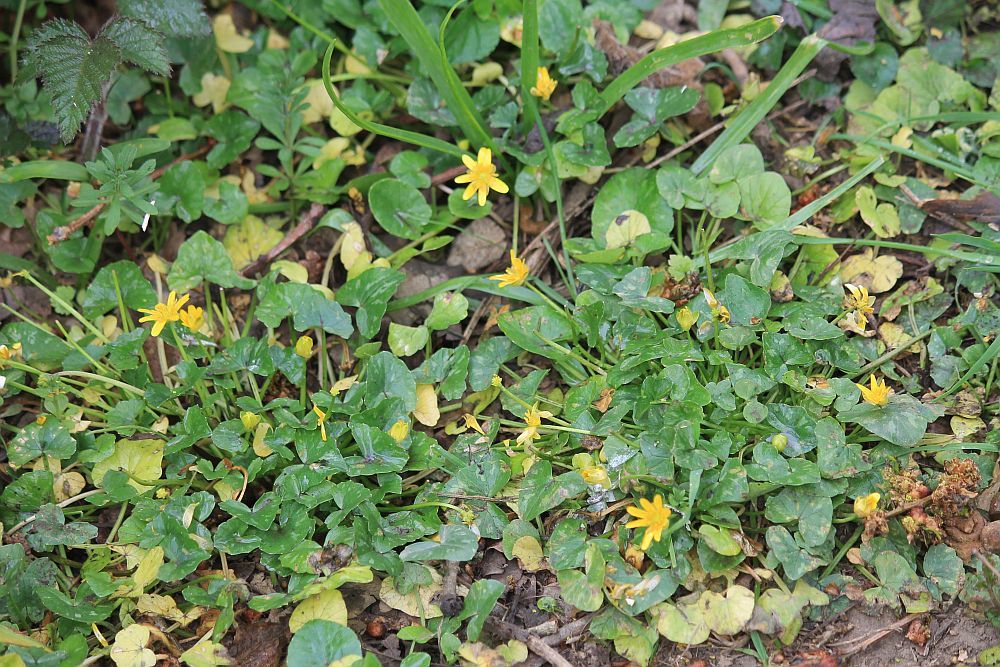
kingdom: Plantae
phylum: Tracheophyta
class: Magnoliopsida
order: Ranunculales
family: Ranunculaceae
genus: Ficaria
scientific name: Ficaria verna
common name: Lesser celandine
